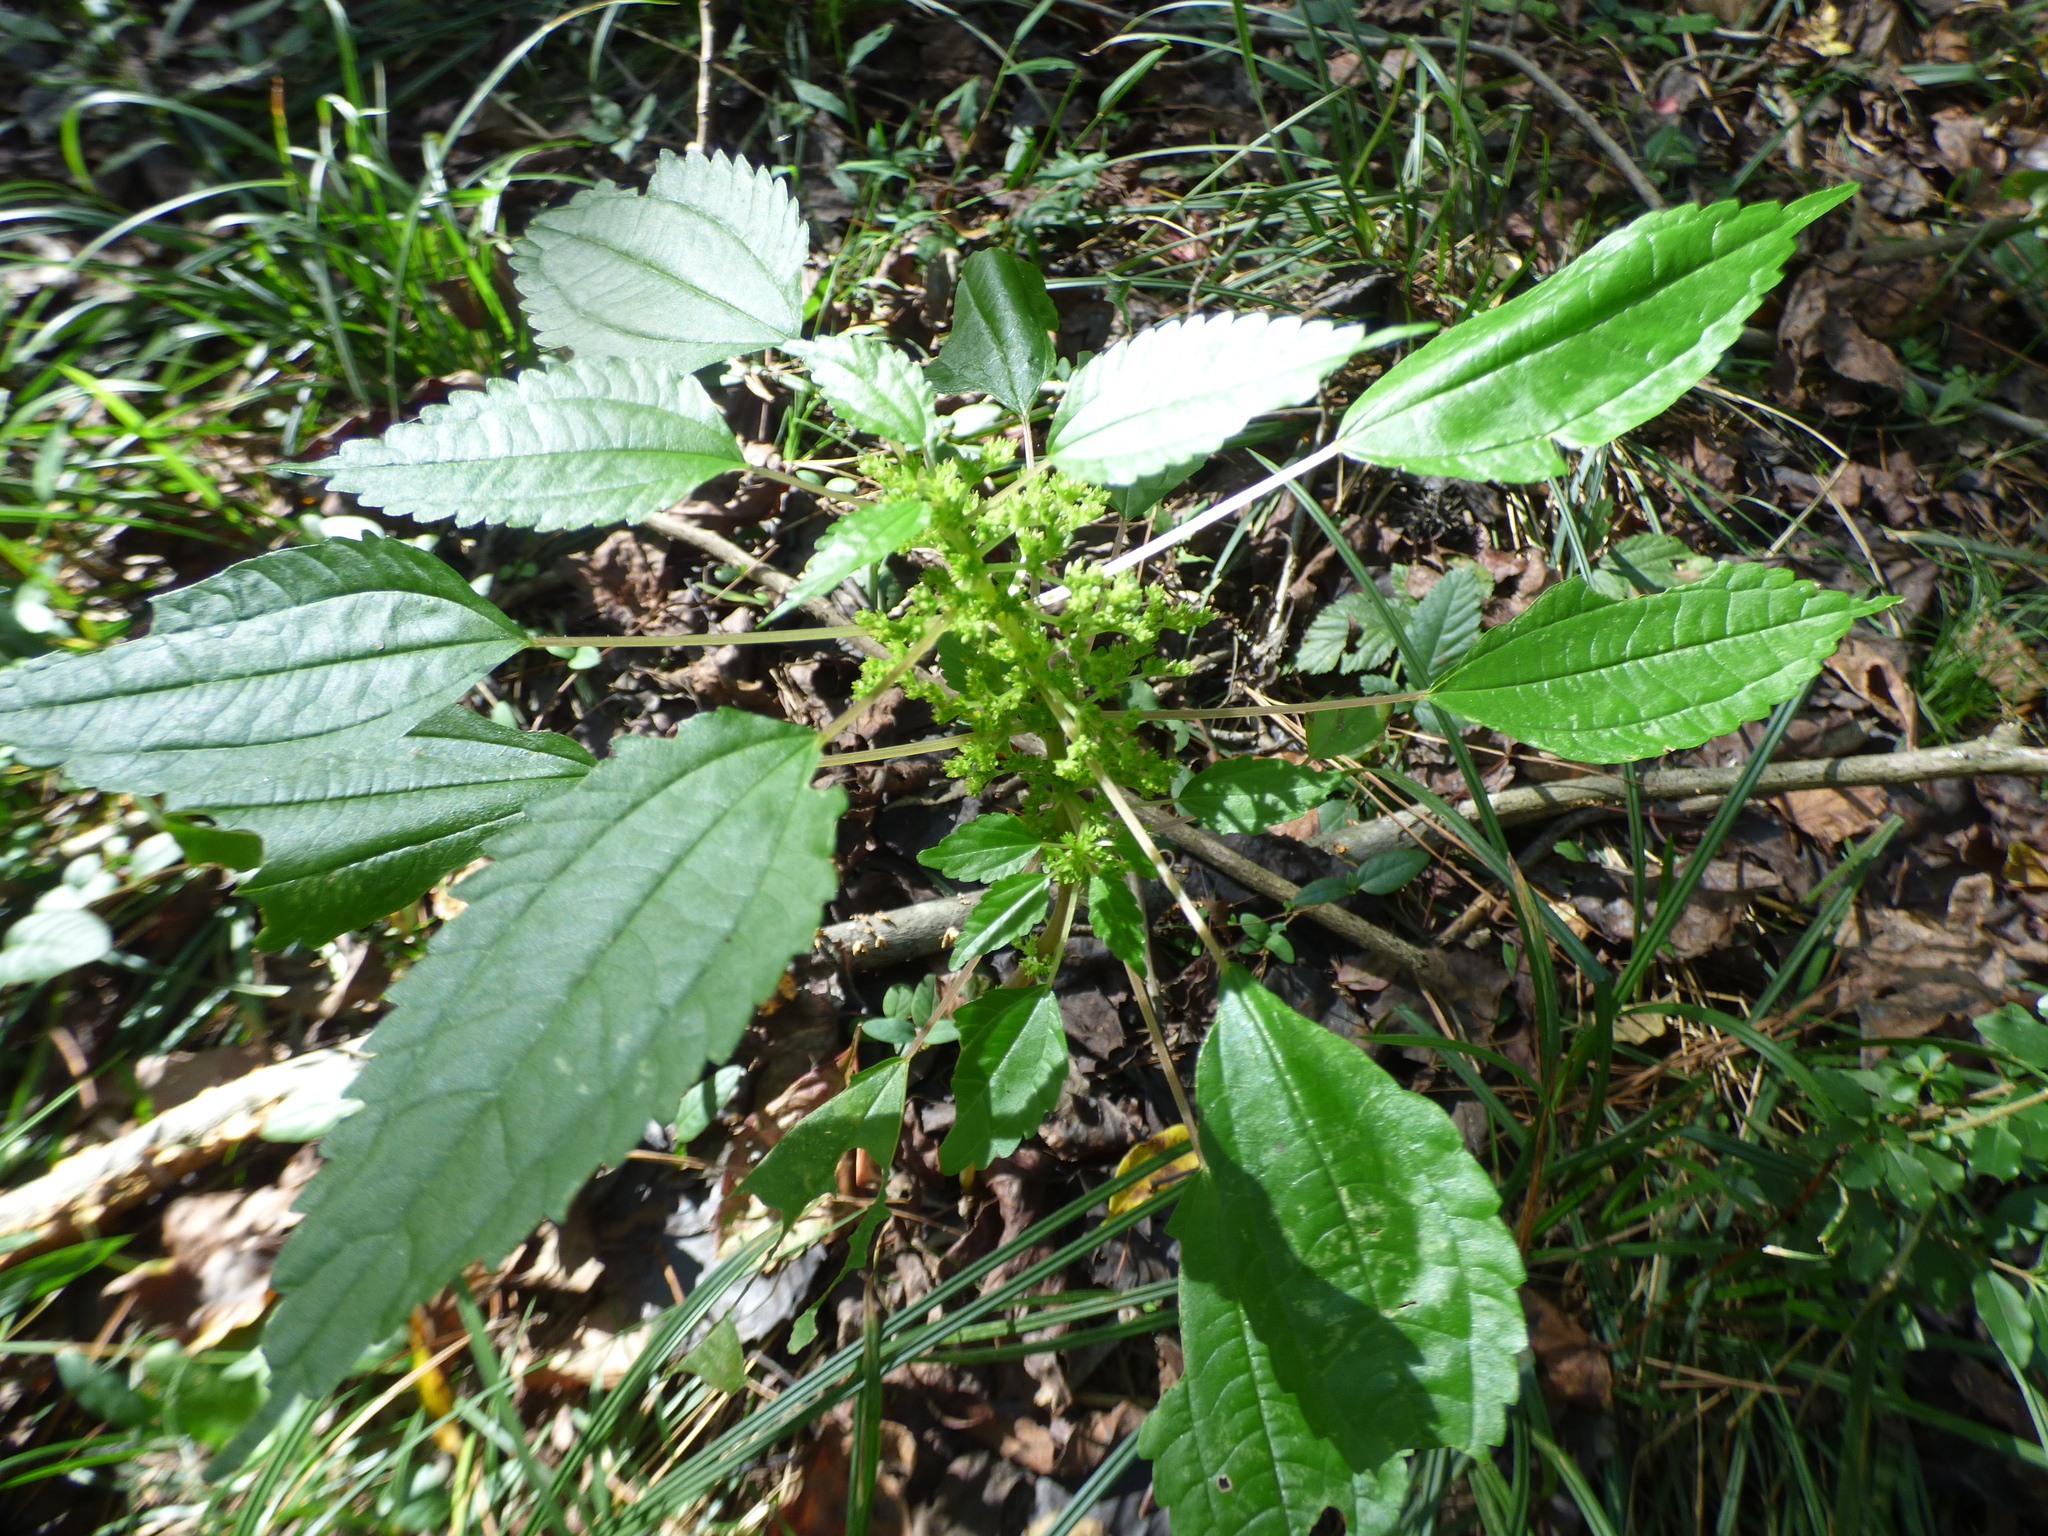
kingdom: Plantae
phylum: Tracheophyta
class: Magnoliopsida
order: Rosales
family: Urticaceae
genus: Pilea
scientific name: Pilea pumila
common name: Clearweed
